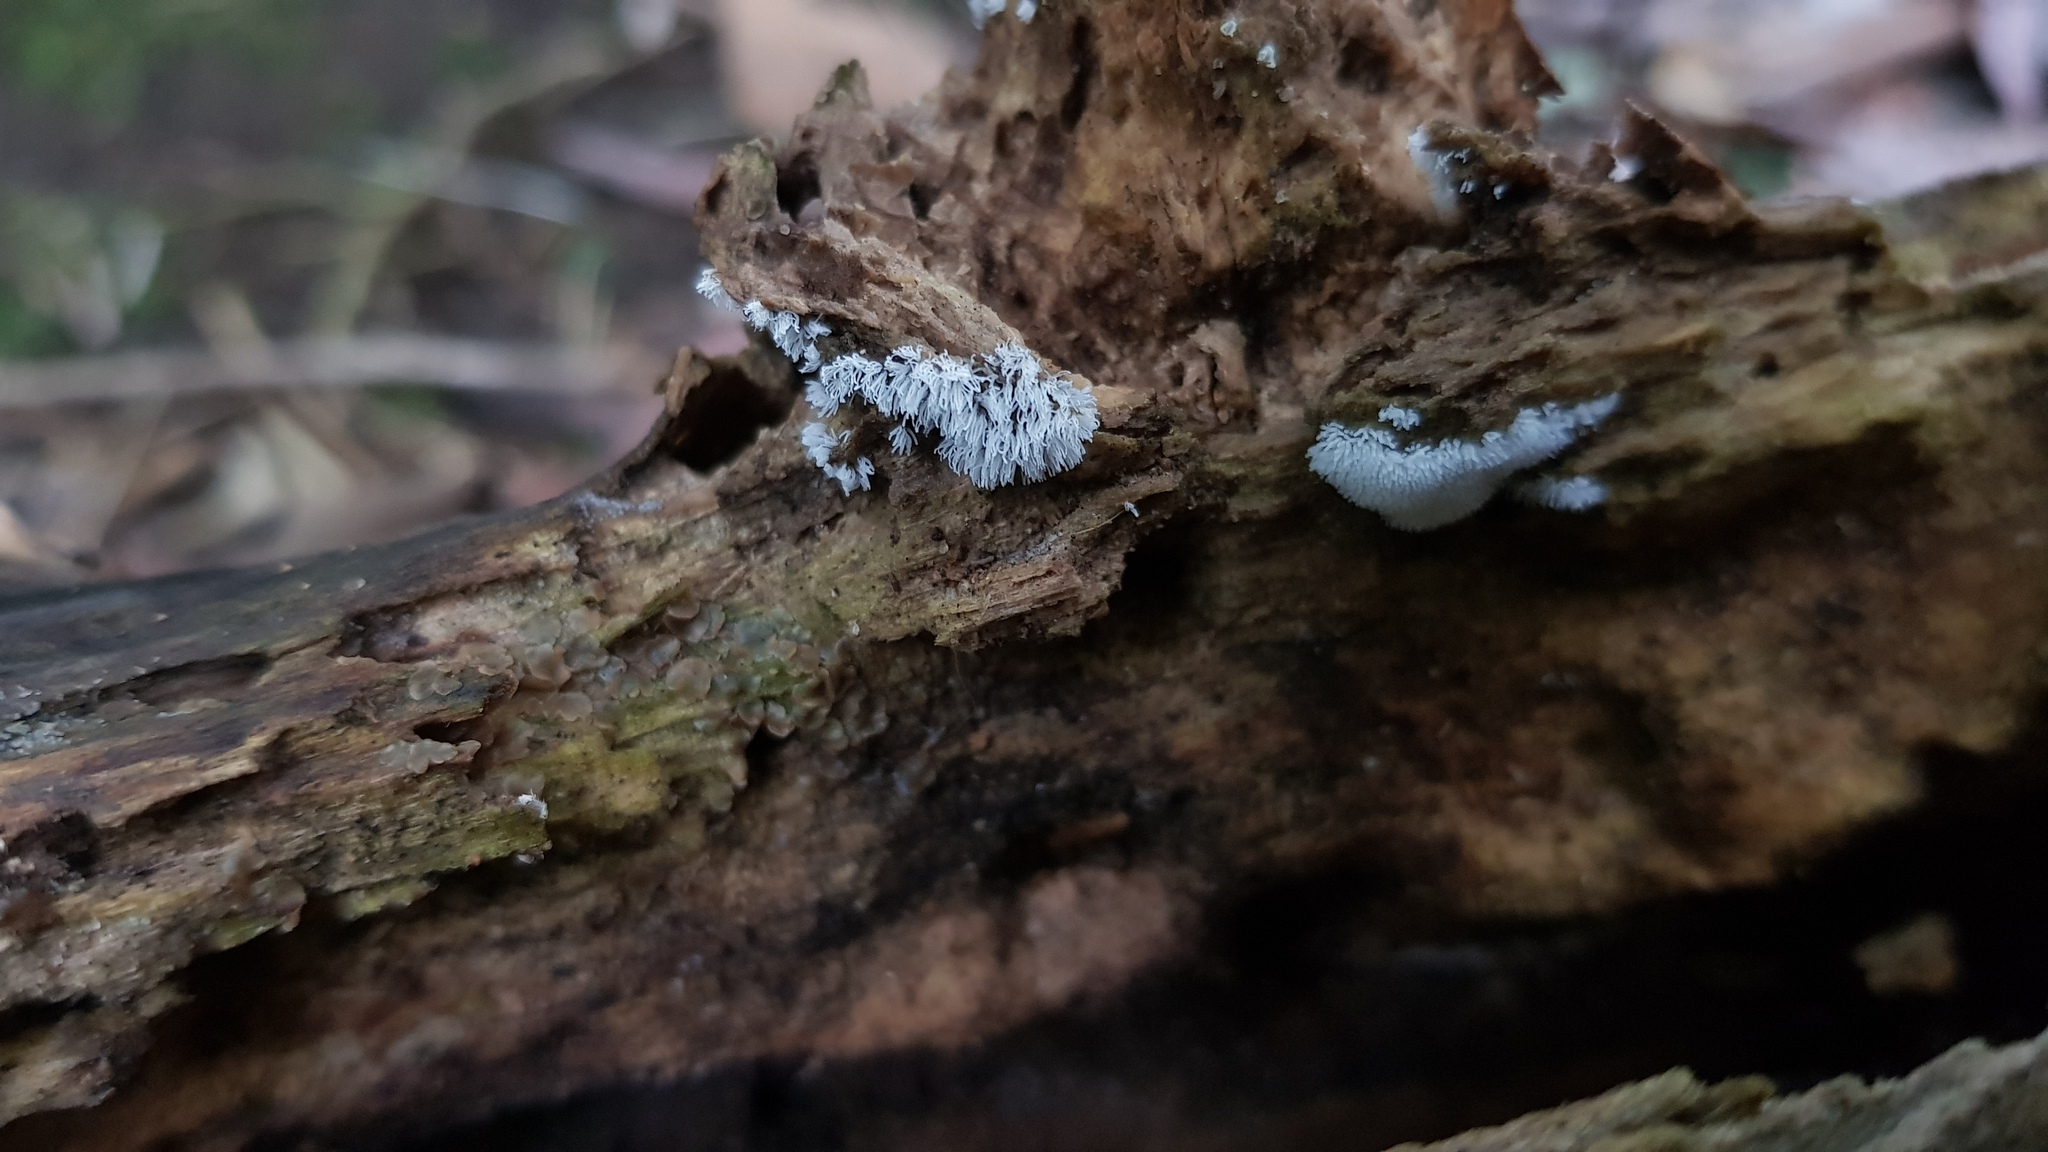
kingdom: Protozoa
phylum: Mycetozoa
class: Protosteliomycetes
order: Ceratiomyxales
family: Ceratiomyxaceae
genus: Ceratiomyxa
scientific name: Ceratiomyxa fruticulosa
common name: Honeycomb coral slime mold
